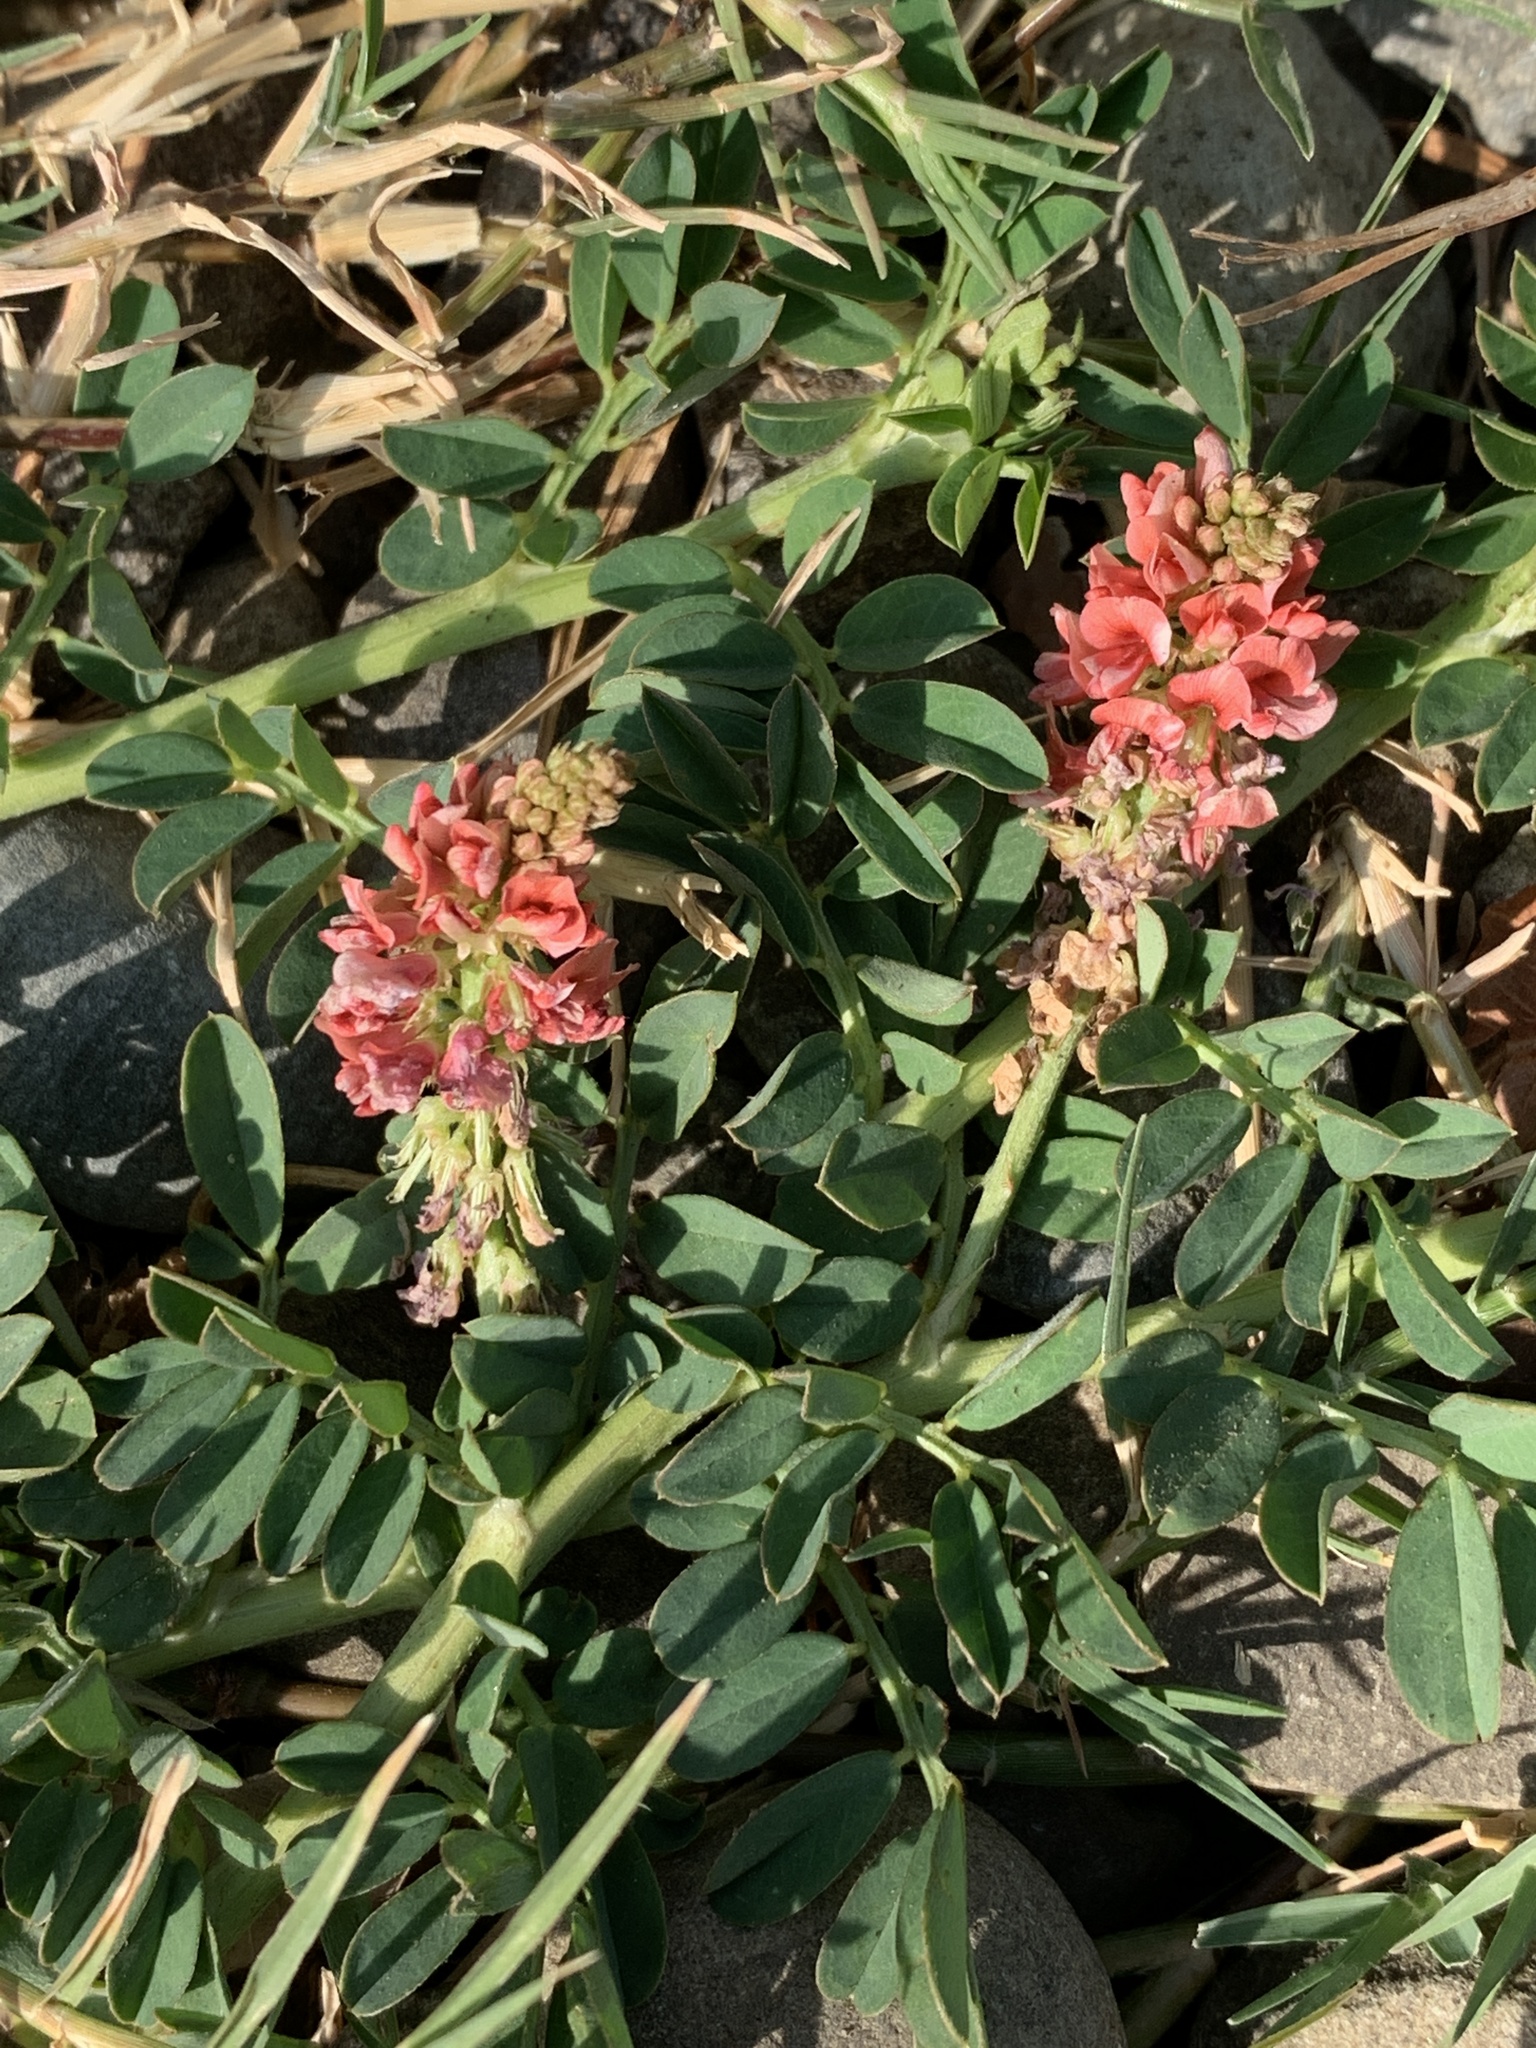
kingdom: Plantae
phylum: Tracheophyta
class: Magnoliopsida
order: Fabales
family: Fabaceae
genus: Indigofera
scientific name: Indigofera spicata
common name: Creeping indigo
